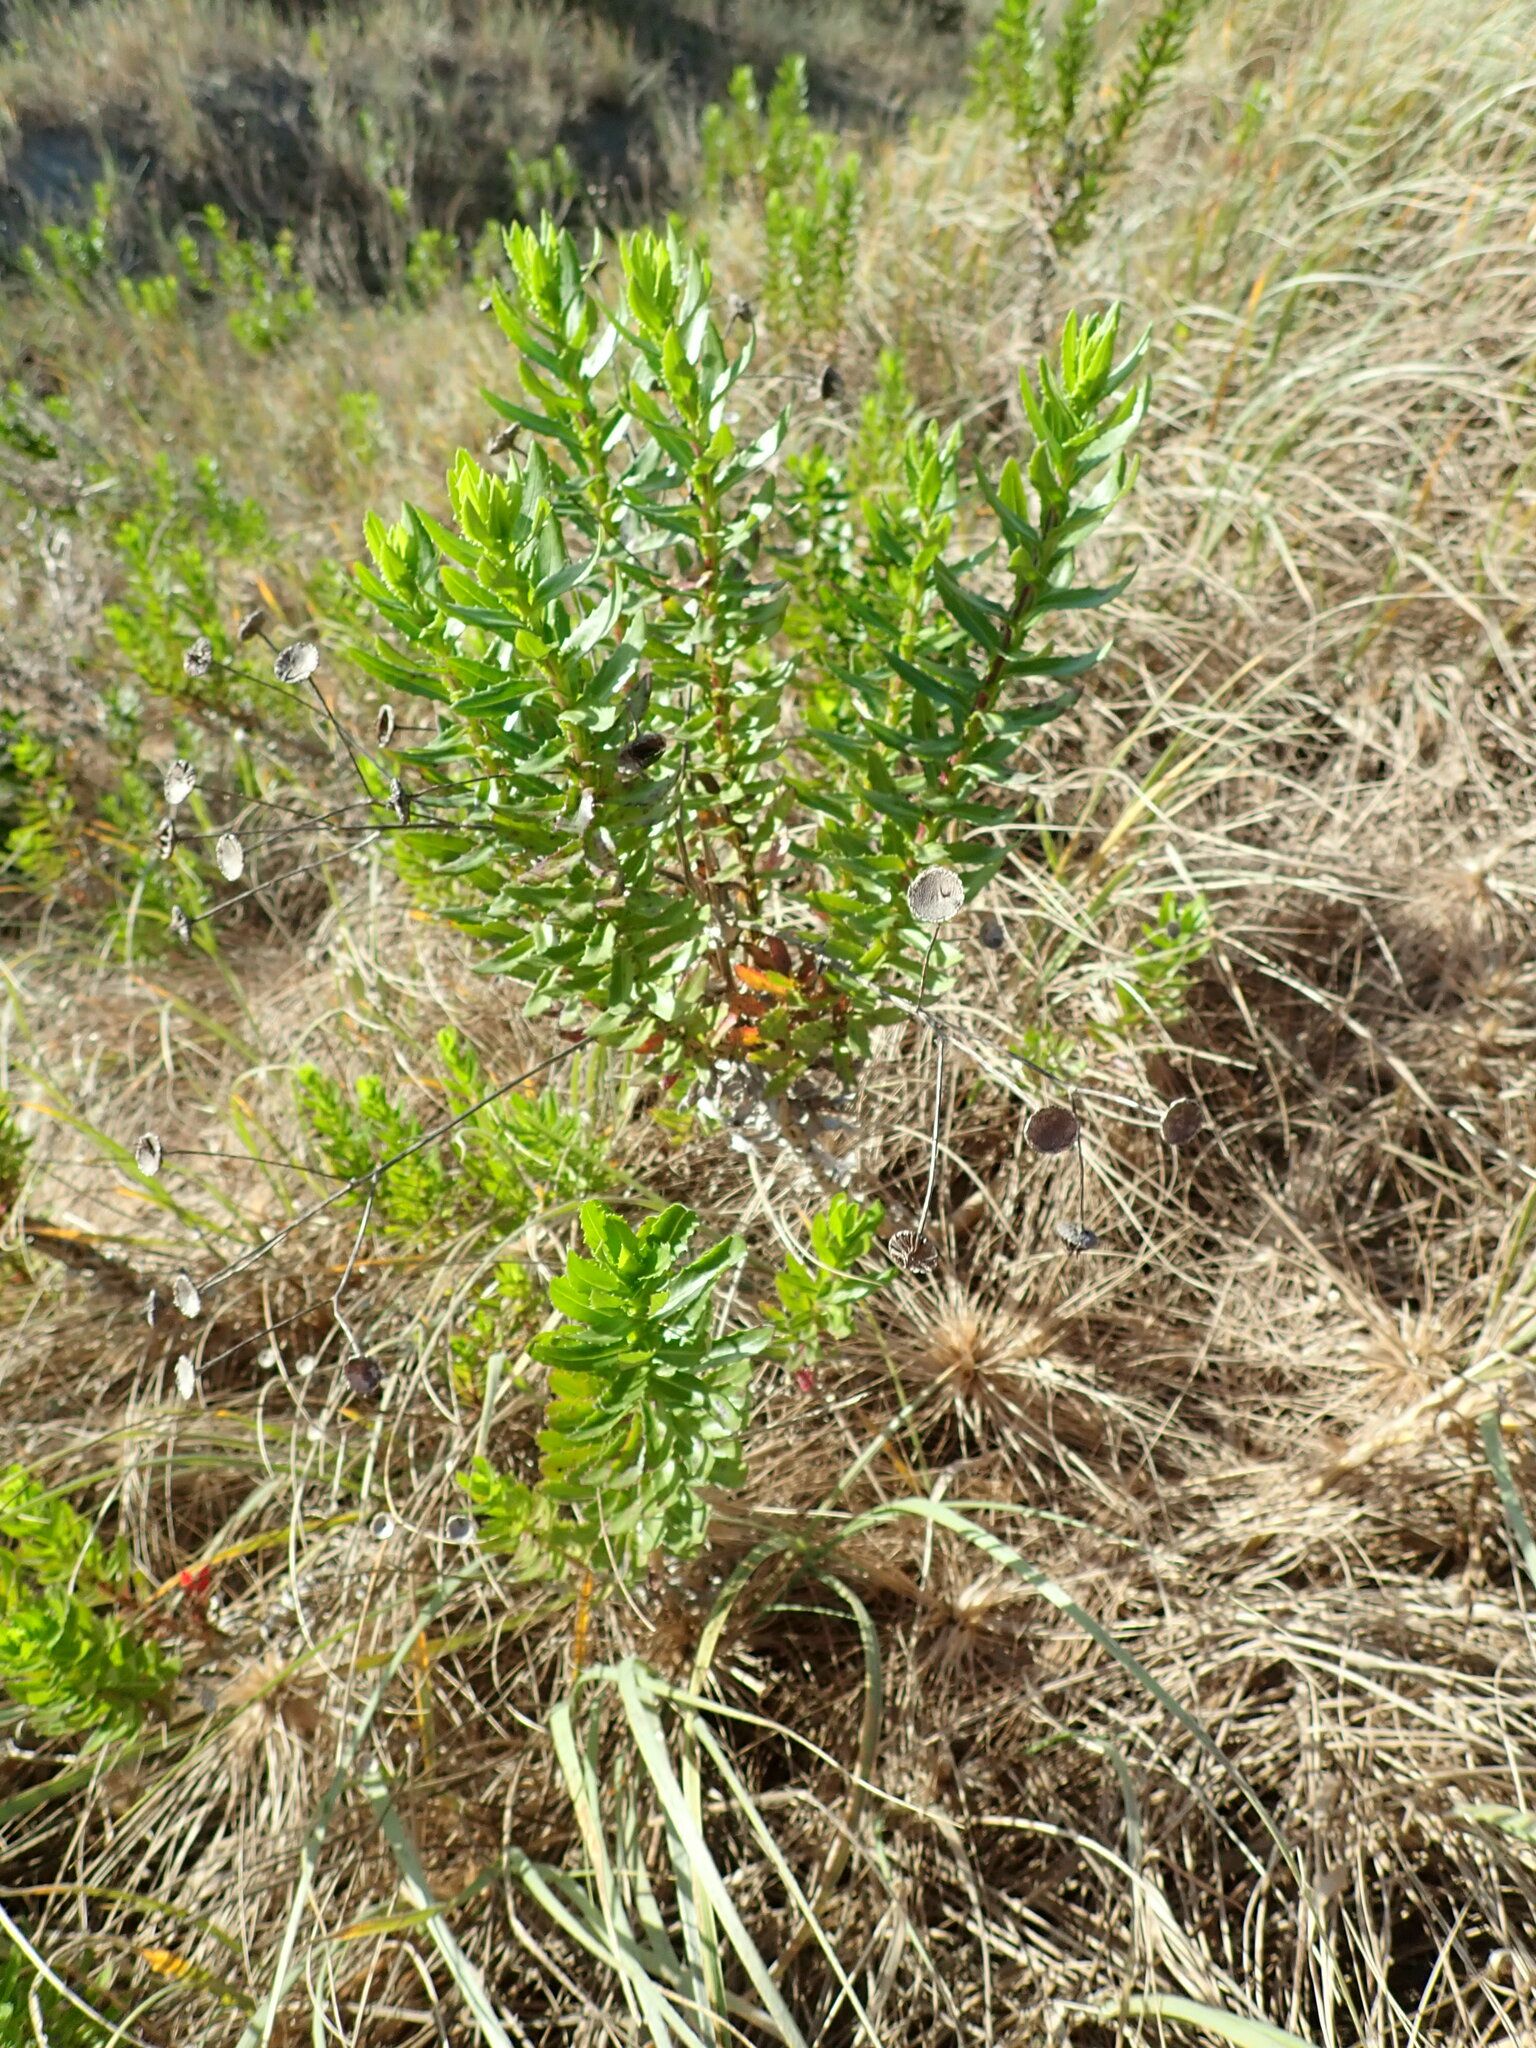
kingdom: Plantae
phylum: Tracheophyta
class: Magnoliopsida
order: Asterales
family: Asteraceae
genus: Senecio
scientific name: Senecio glastifolius
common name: Woad-leaved ragwort
